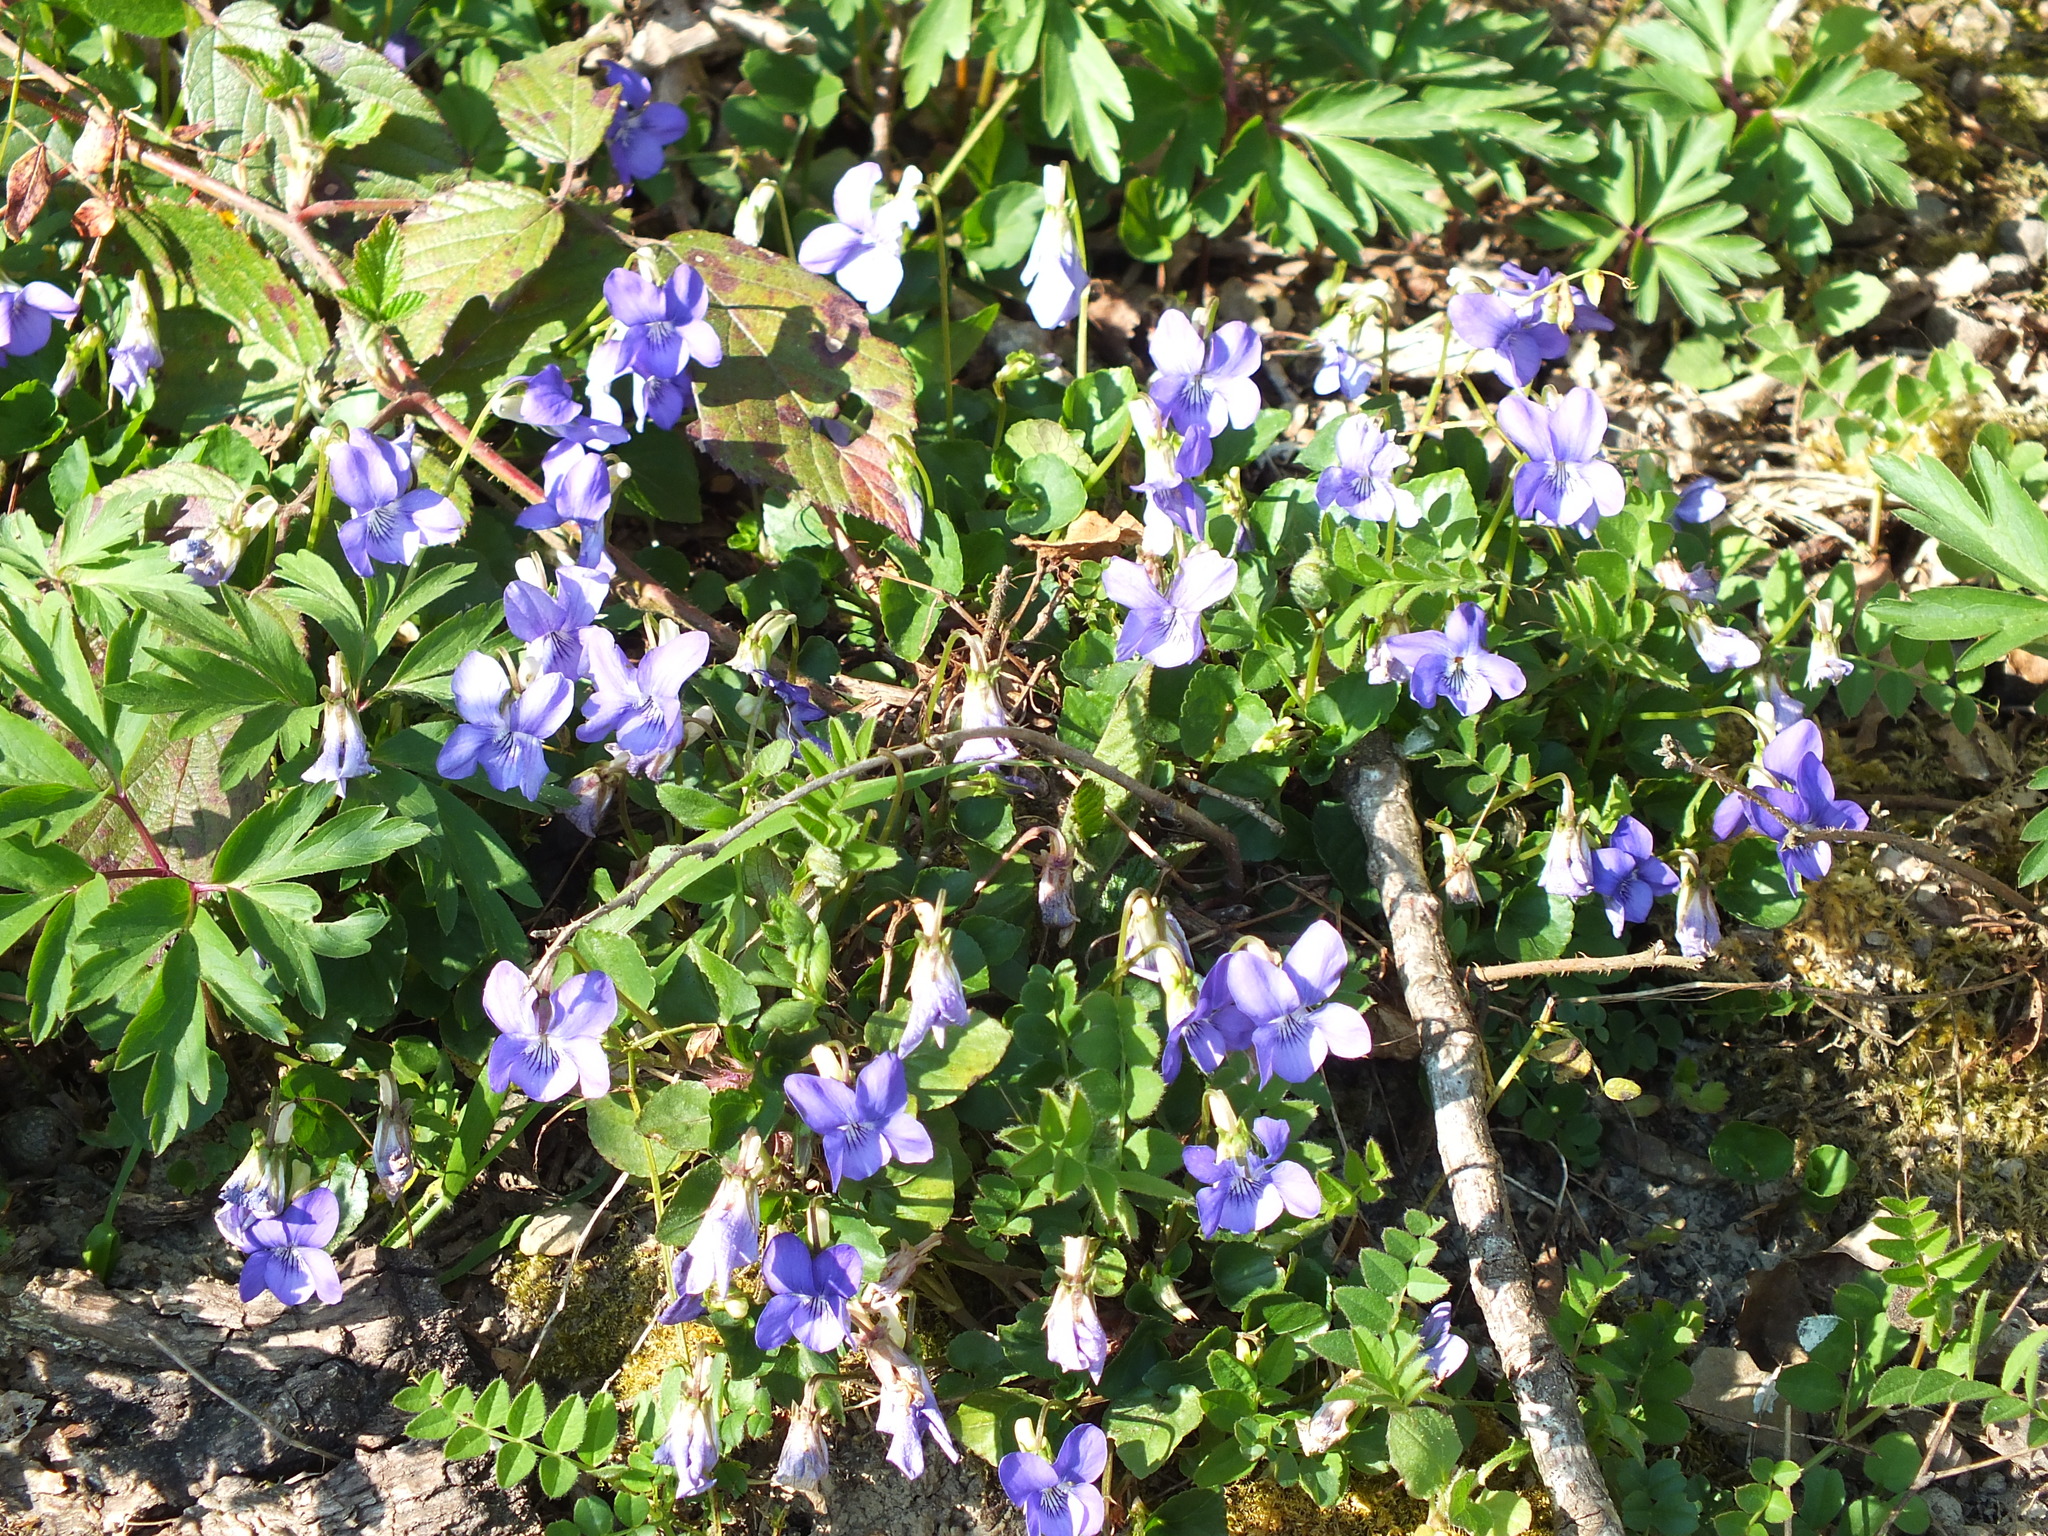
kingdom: Plantae
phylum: Tracheophyta
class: Magnoliopsida
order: Malpighiales
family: Violaceae
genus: Viola
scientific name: Viola riviniana
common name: Common dog-violet
